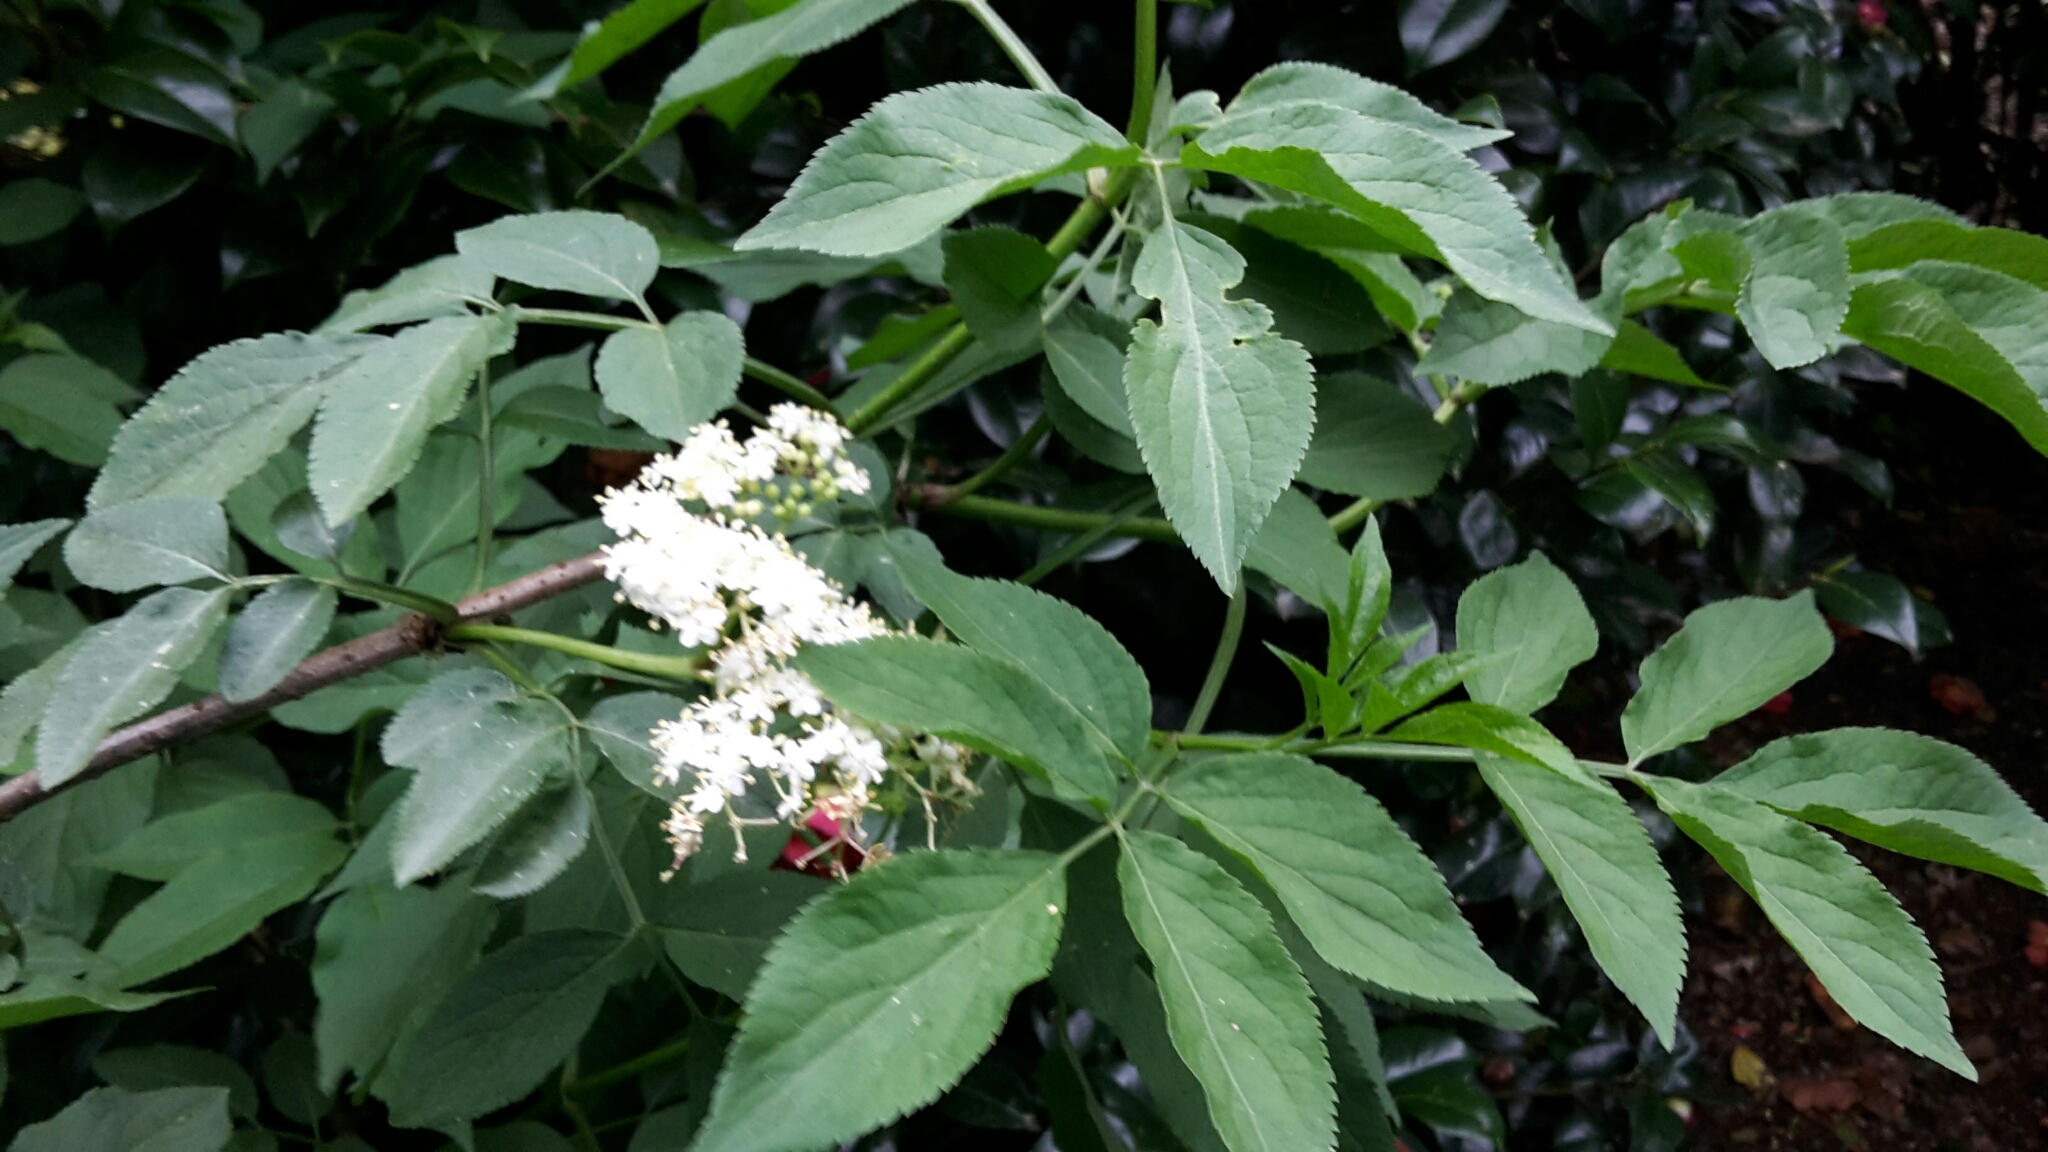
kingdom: Plantae
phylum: Tracheophyta
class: Magnoliopsida
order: Dipsacales
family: Viburnaceae
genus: Sambucus
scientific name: Sambucus nigra
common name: Elder
